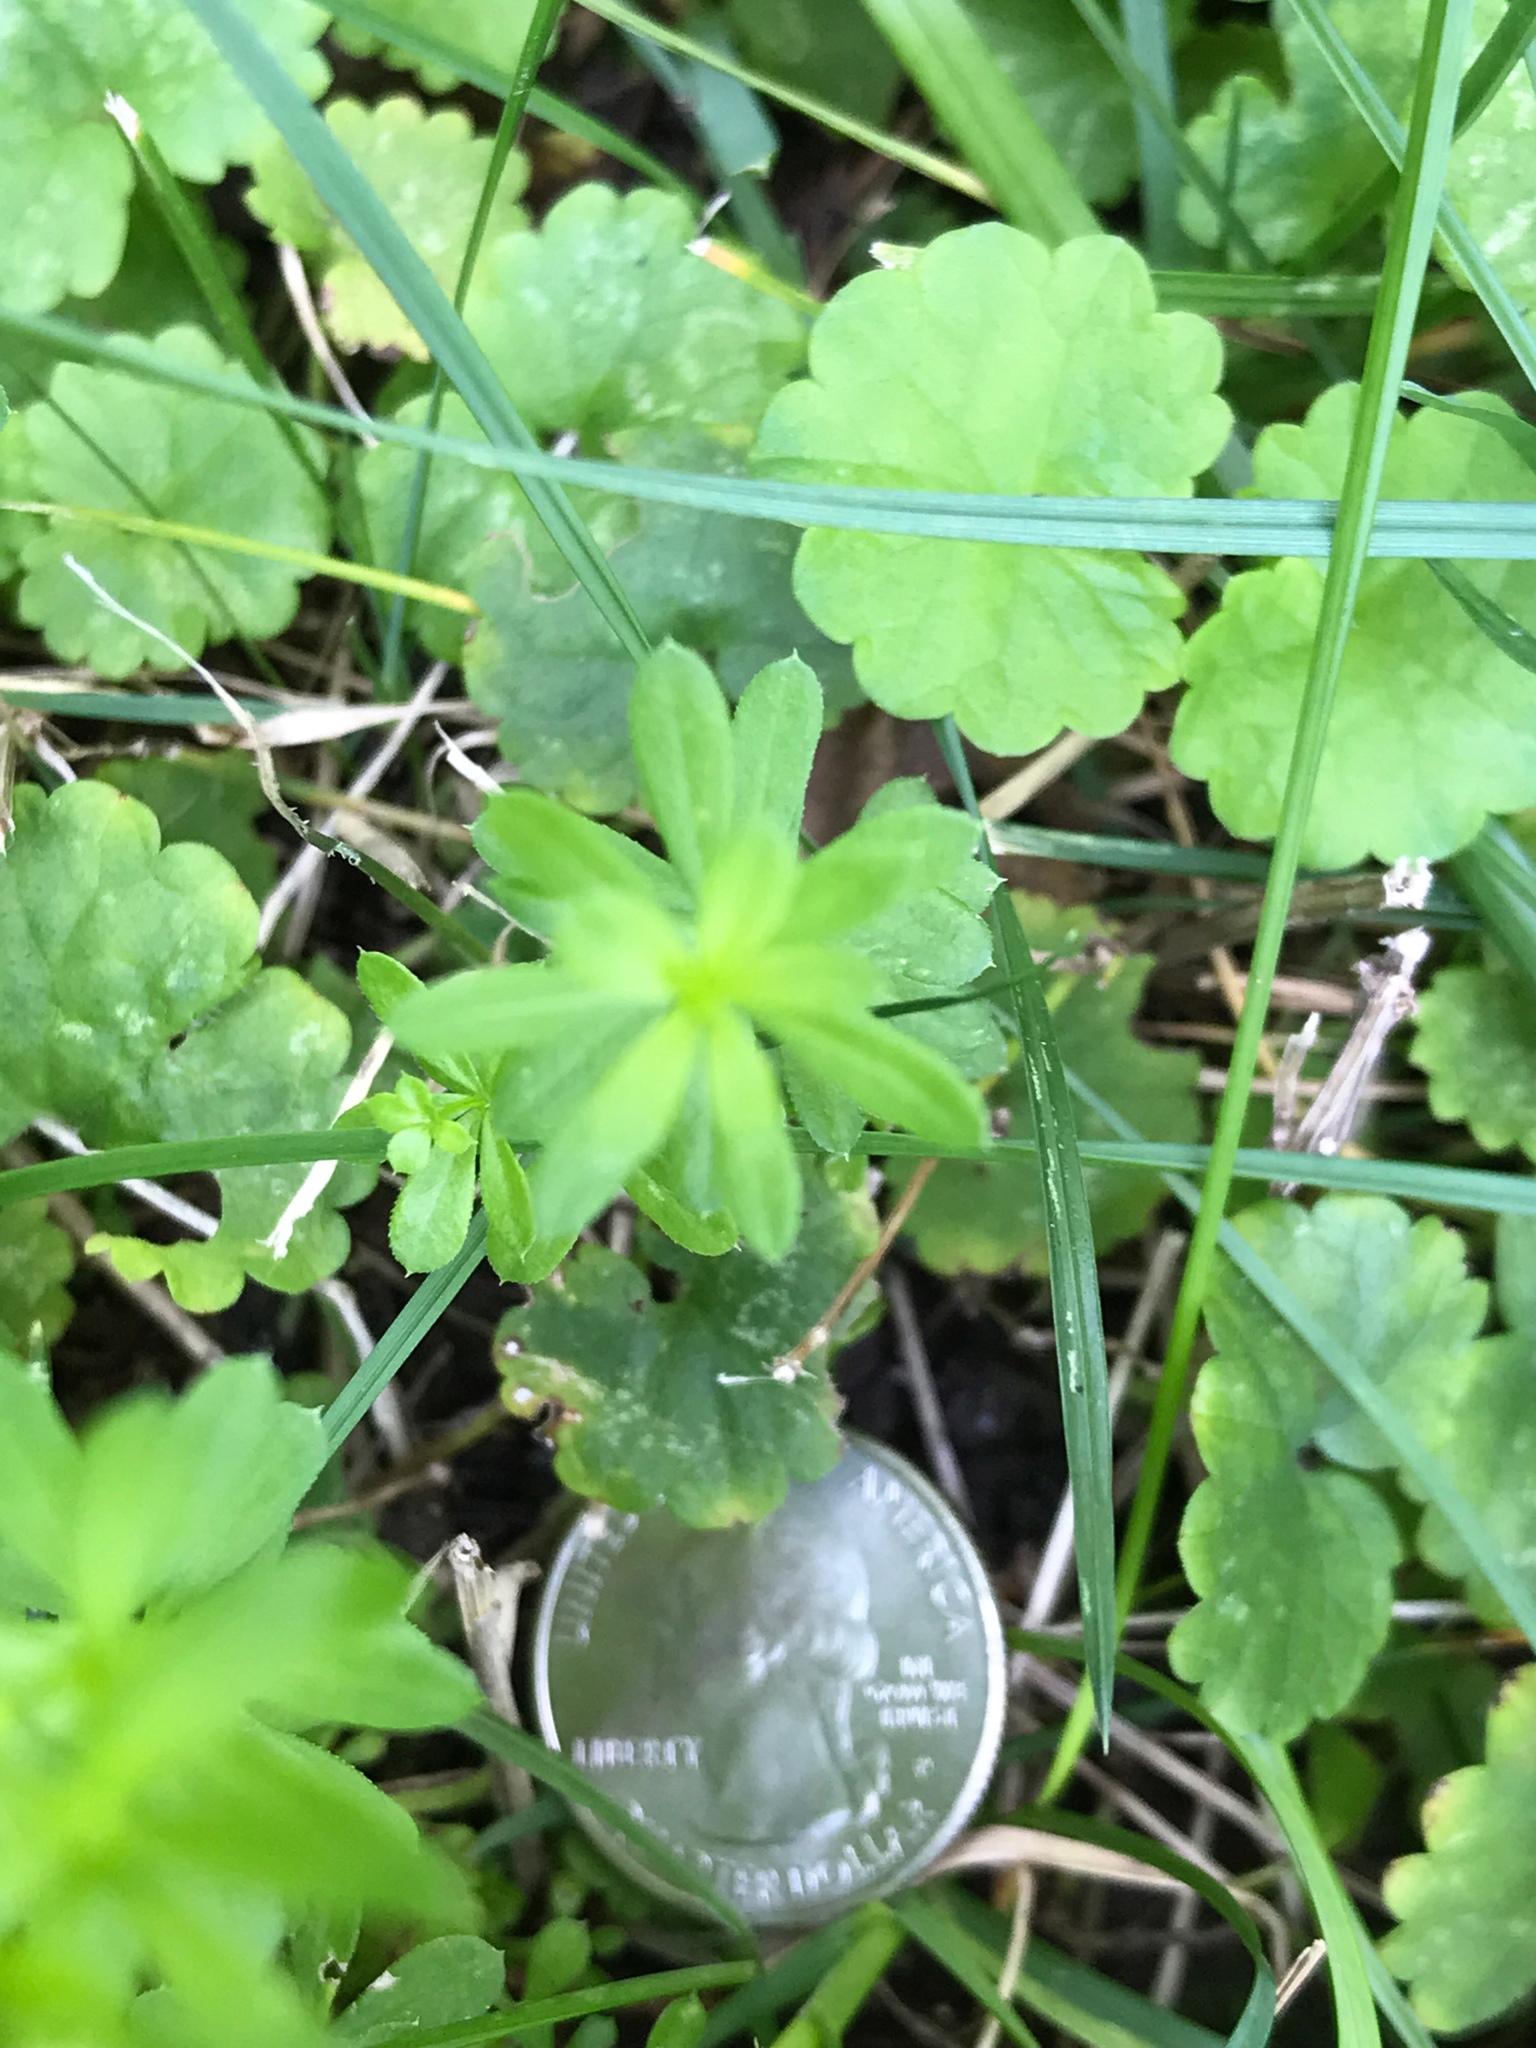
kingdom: Plantae
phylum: Tracheophyta
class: Magnoliopsida
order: Gentianales
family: Rubiaceae
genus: Galium
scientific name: Galium mollugo
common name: Hedge bedstraw
